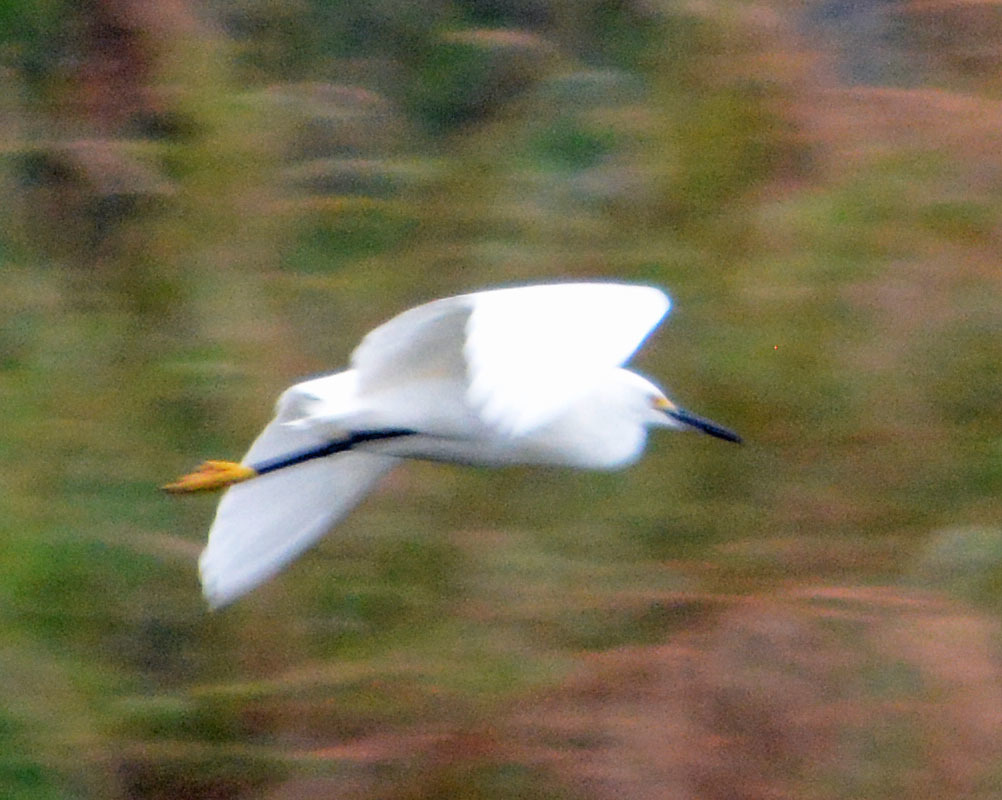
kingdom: Animalia
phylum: Chordata
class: Aves
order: Pelecaniformes
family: Ardeidae
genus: Egretta
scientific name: Egretta thula
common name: Snowy egret
